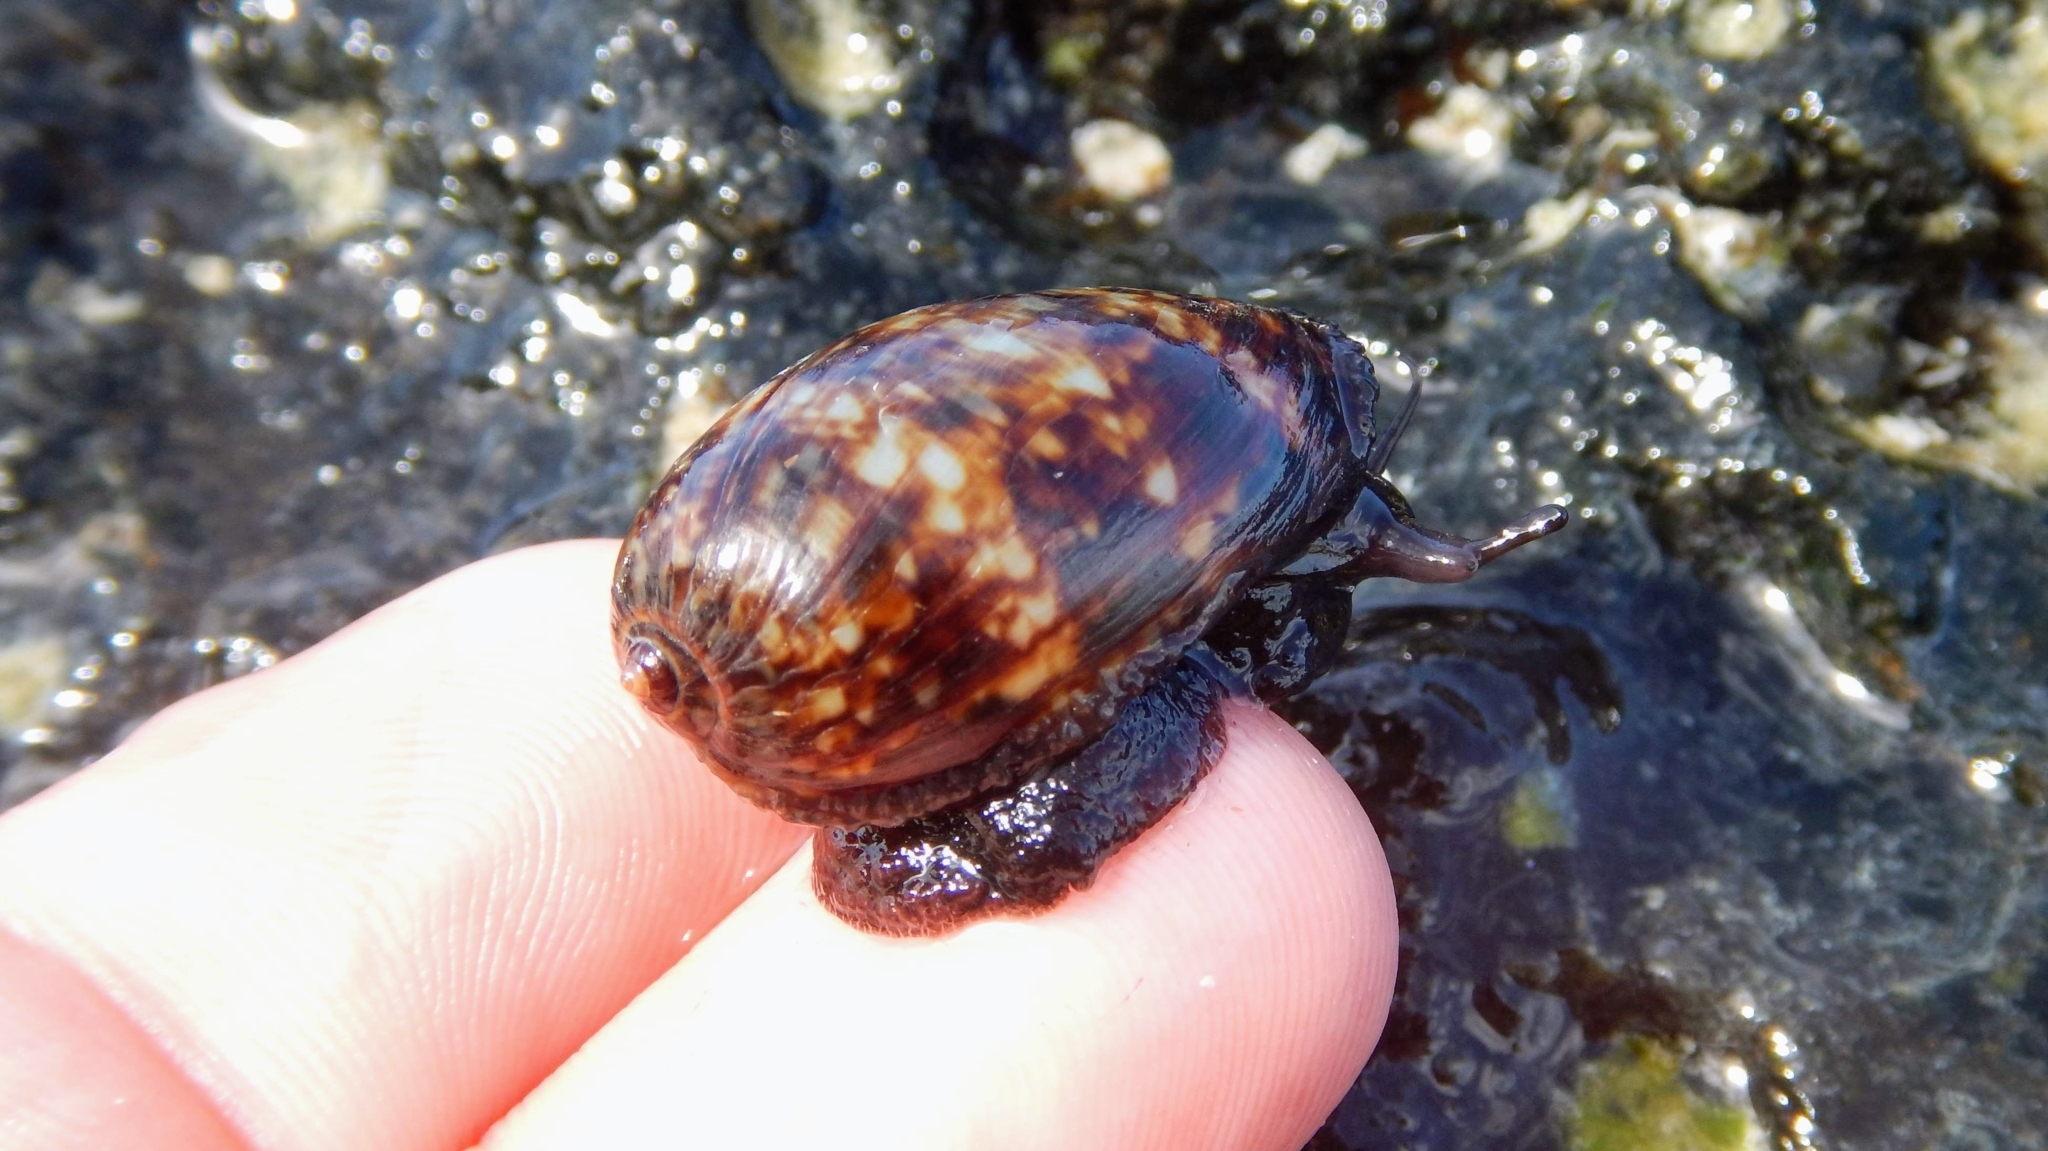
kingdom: Animalia
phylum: Mollusca
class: Gastropoda
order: Littorinimorpha
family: Cypraeidae
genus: Mauritia
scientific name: Mauritia mauritiana
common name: Hump-backed cowrie
